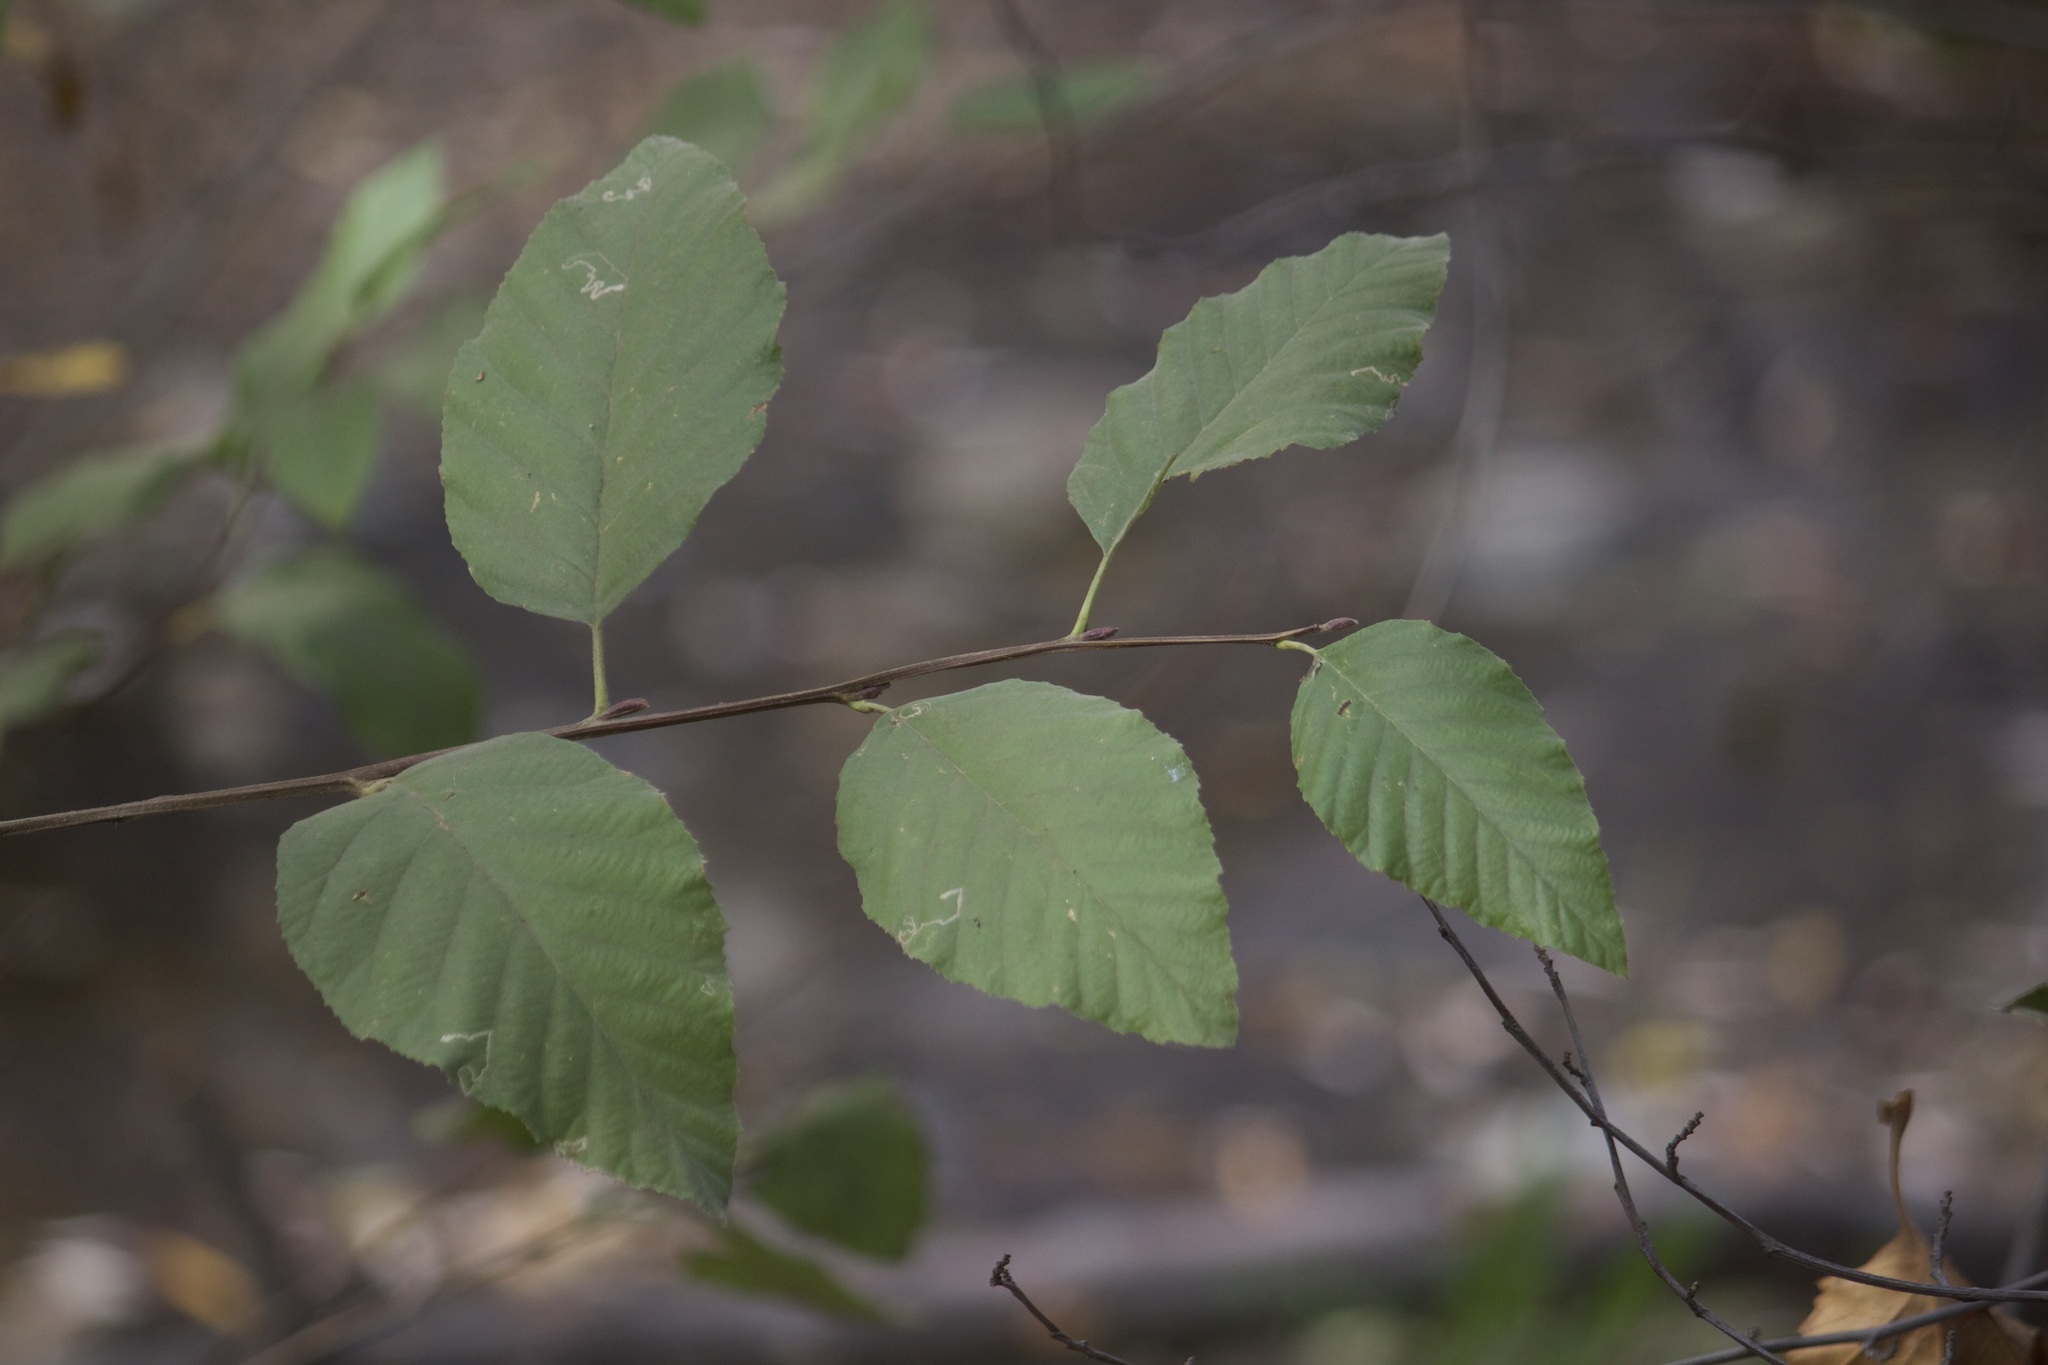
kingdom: Plantae
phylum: Tracheophyta
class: Magnoliopsida
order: Fagales
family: Betulaceae
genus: Alnus
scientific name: Alnus rhombifolia
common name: California alder
